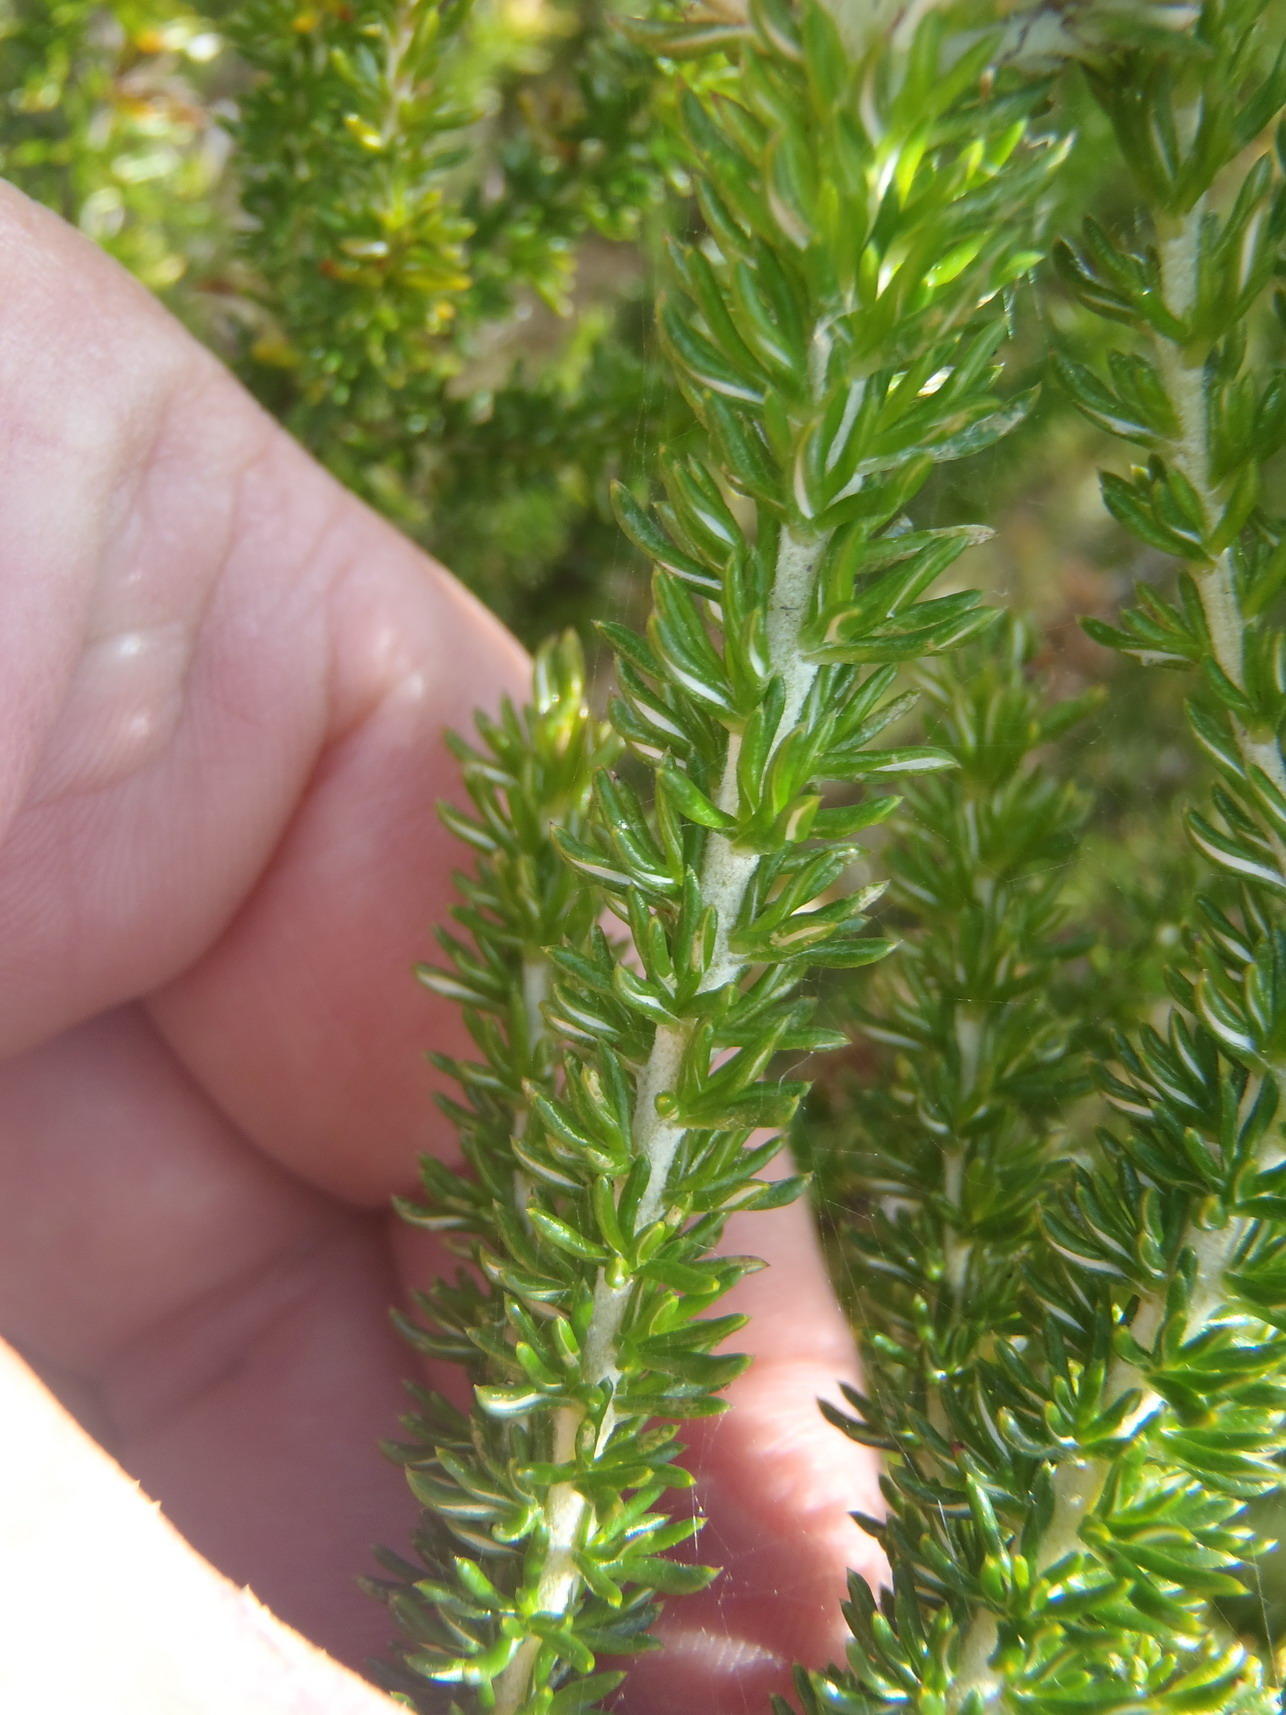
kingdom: Plantae
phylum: Tracheophyta
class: Magnoliopsida
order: Asterales
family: Asteraceae
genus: Metalasia
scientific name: Metalasia muricata
